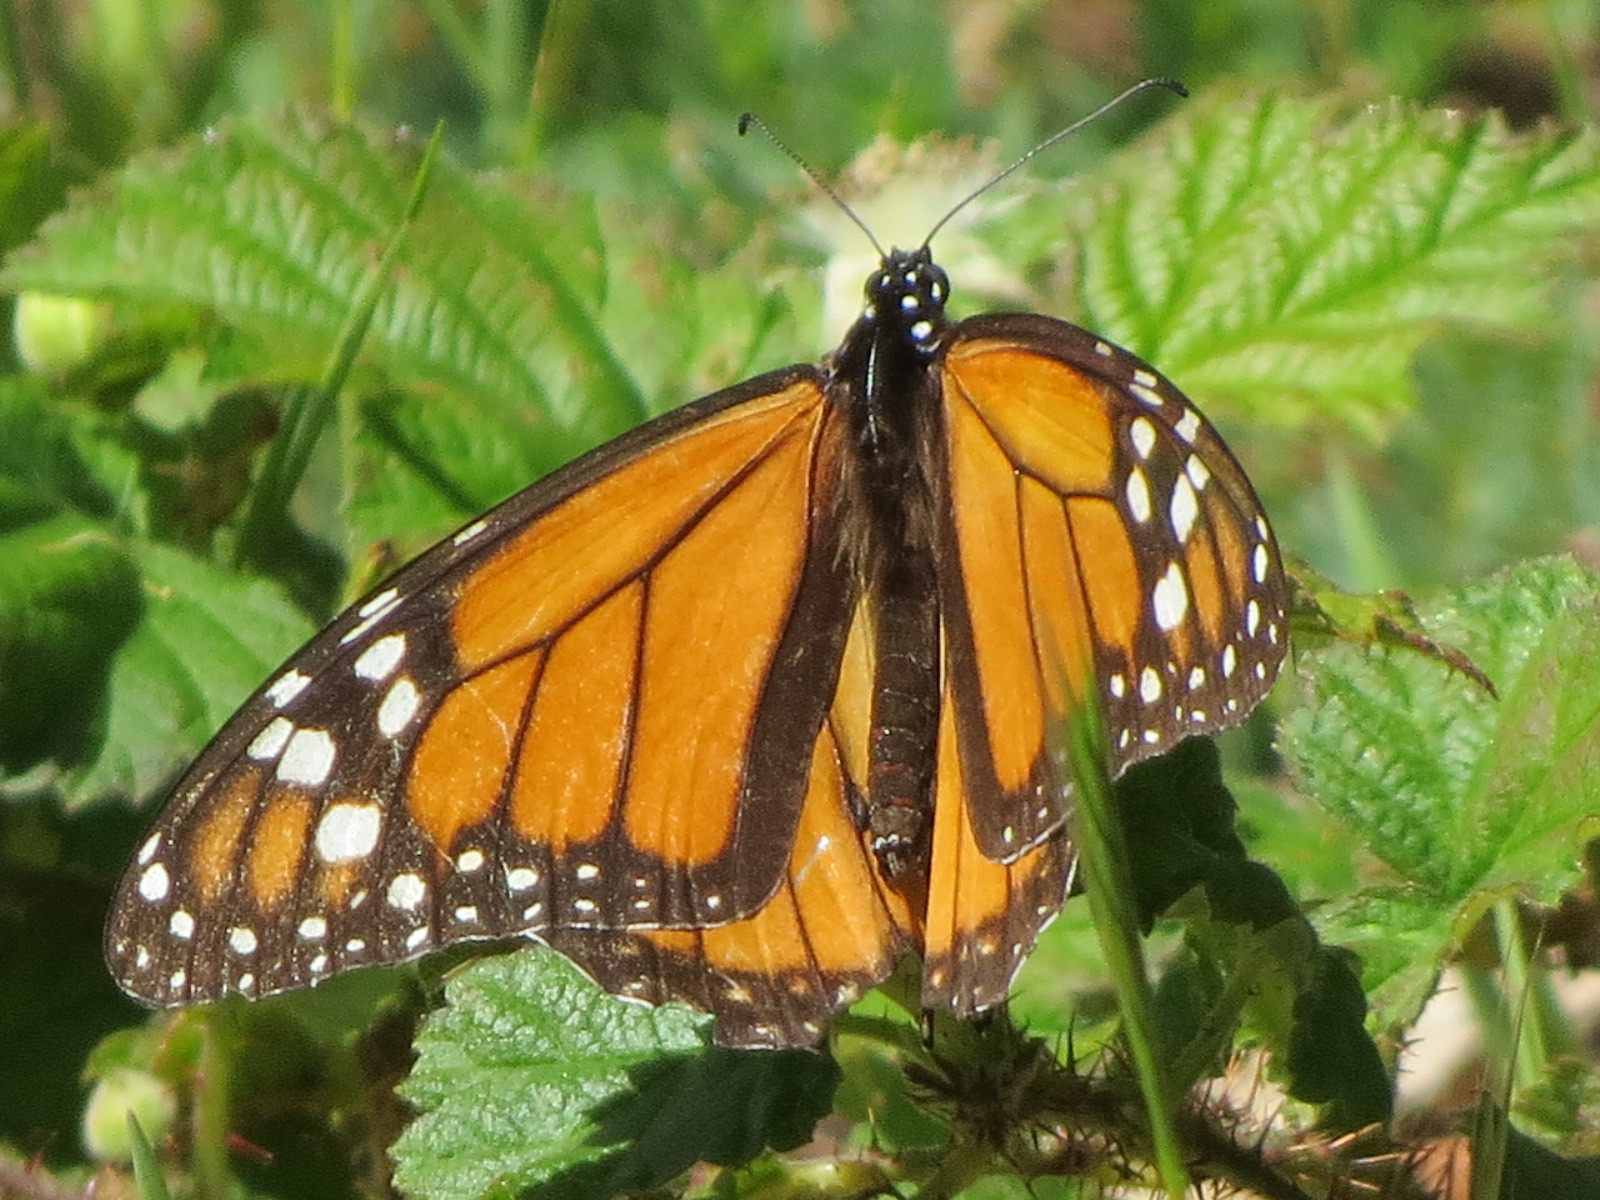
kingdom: Animalia
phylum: Arthropoda
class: Insecta
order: Lepidoptera
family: Nymphalidae
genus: Danaus
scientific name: Danaus plexippus
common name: Monarch
